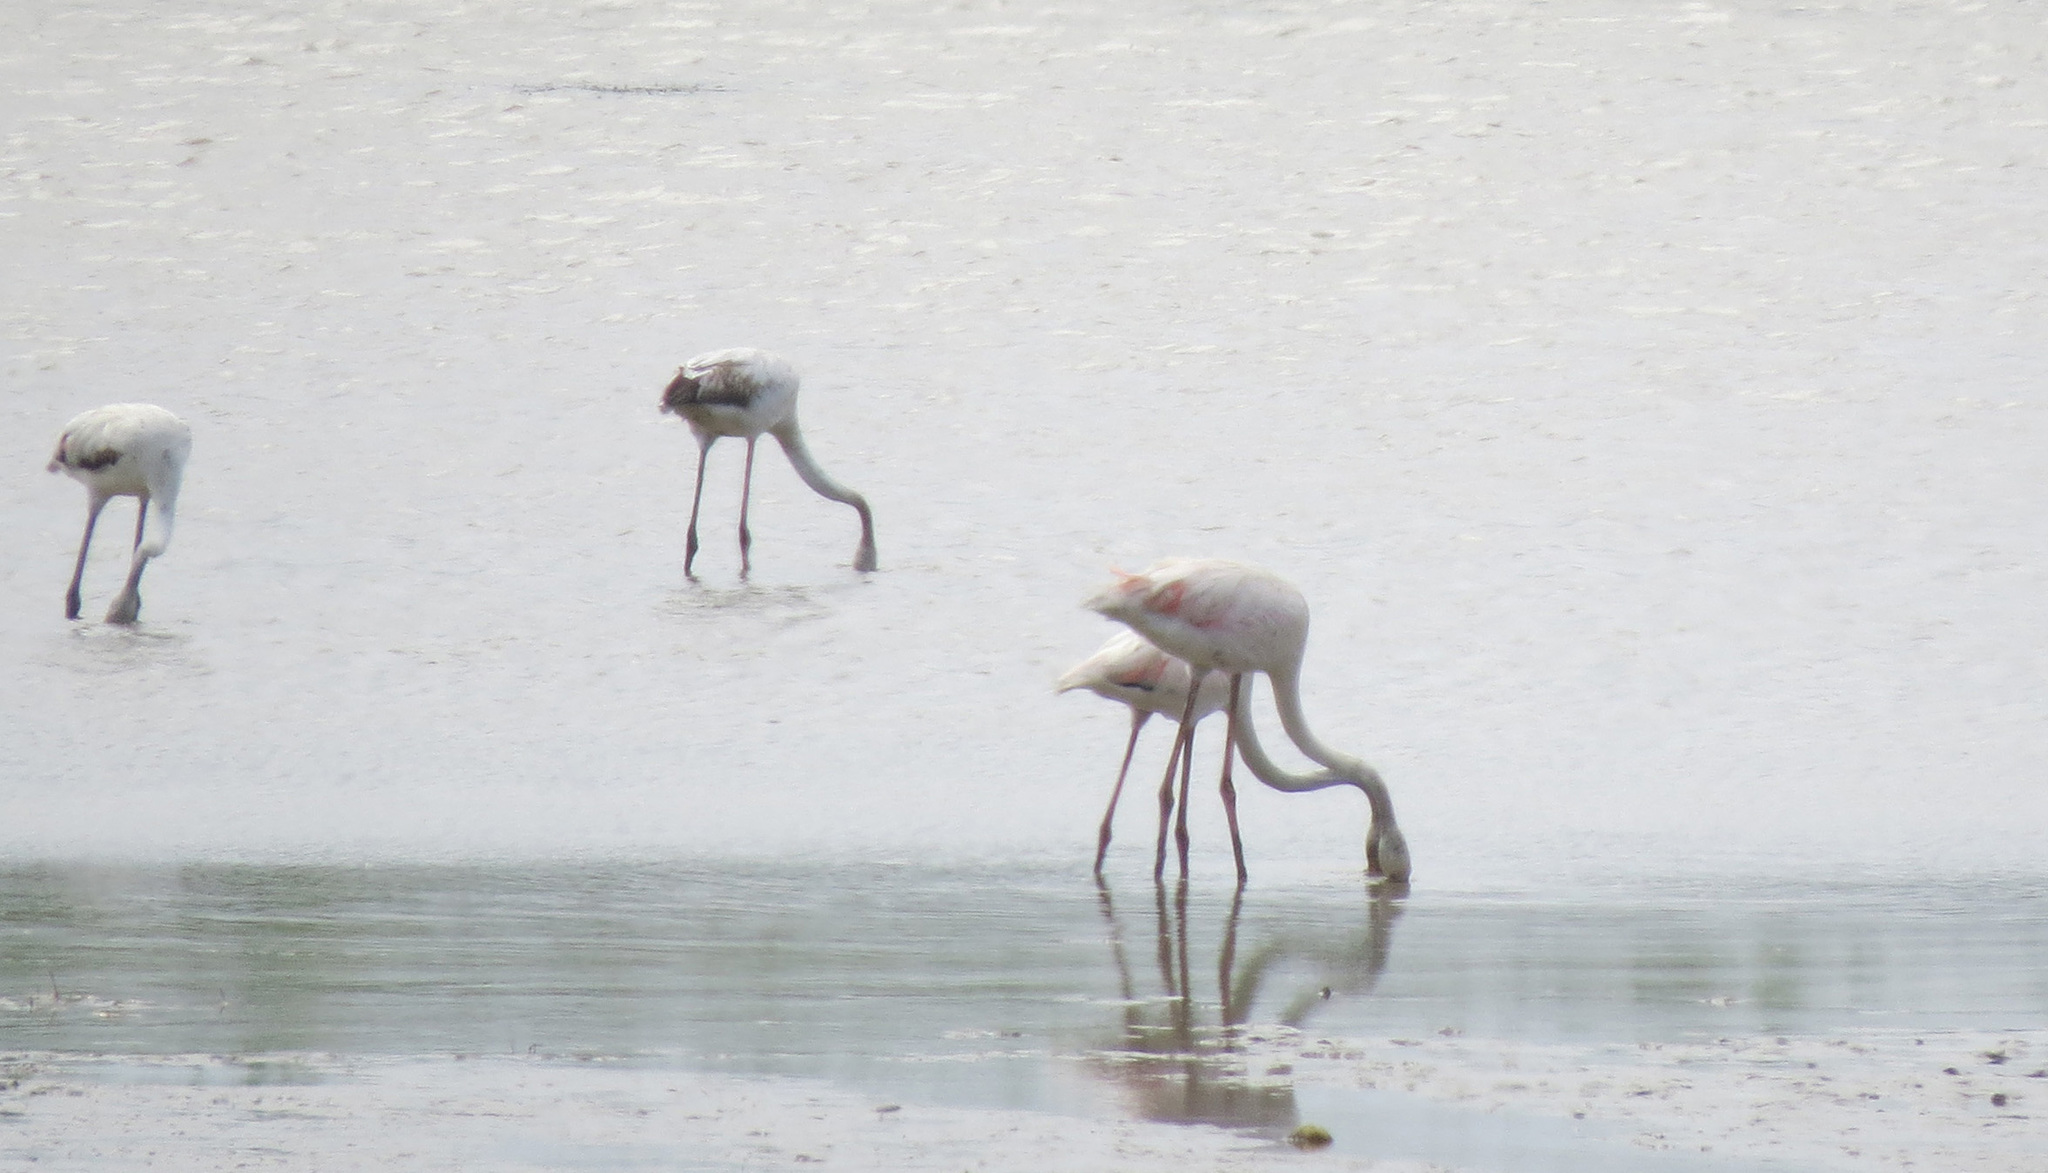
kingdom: Animalia
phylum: Chordata
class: Aves
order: Phoenicopteriformes
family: Phoenicopteridae
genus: Phoenicopterus
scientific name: Phoenicopterus roseus
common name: Greater flamingo
